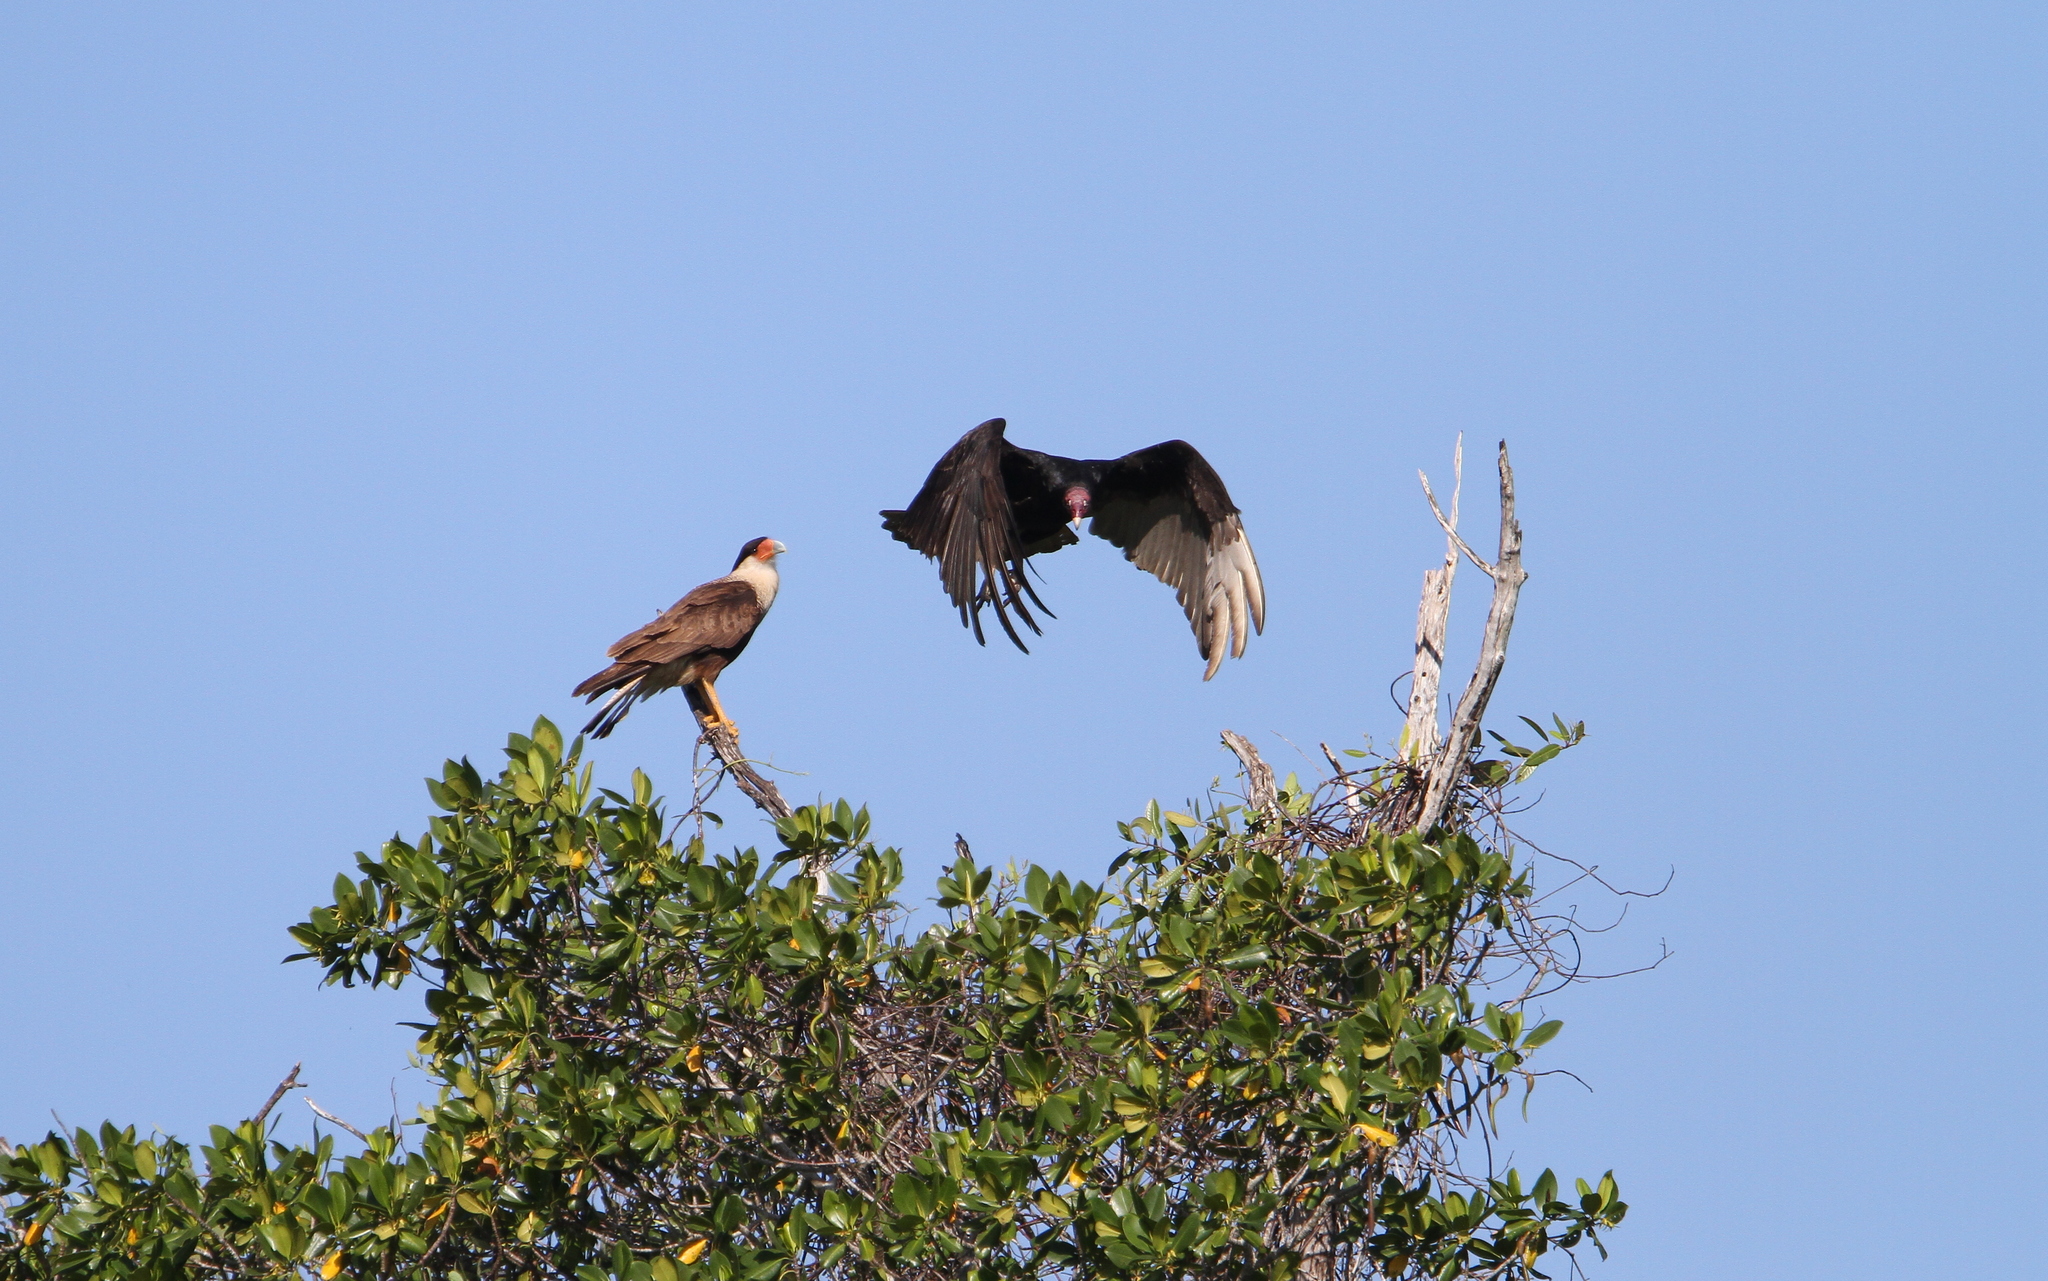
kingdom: Animalia
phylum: Chordata
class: Aves
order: Falconiformes
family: Falconidae
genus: Caracara
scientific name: Caracara plancus
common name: Southern caracara
